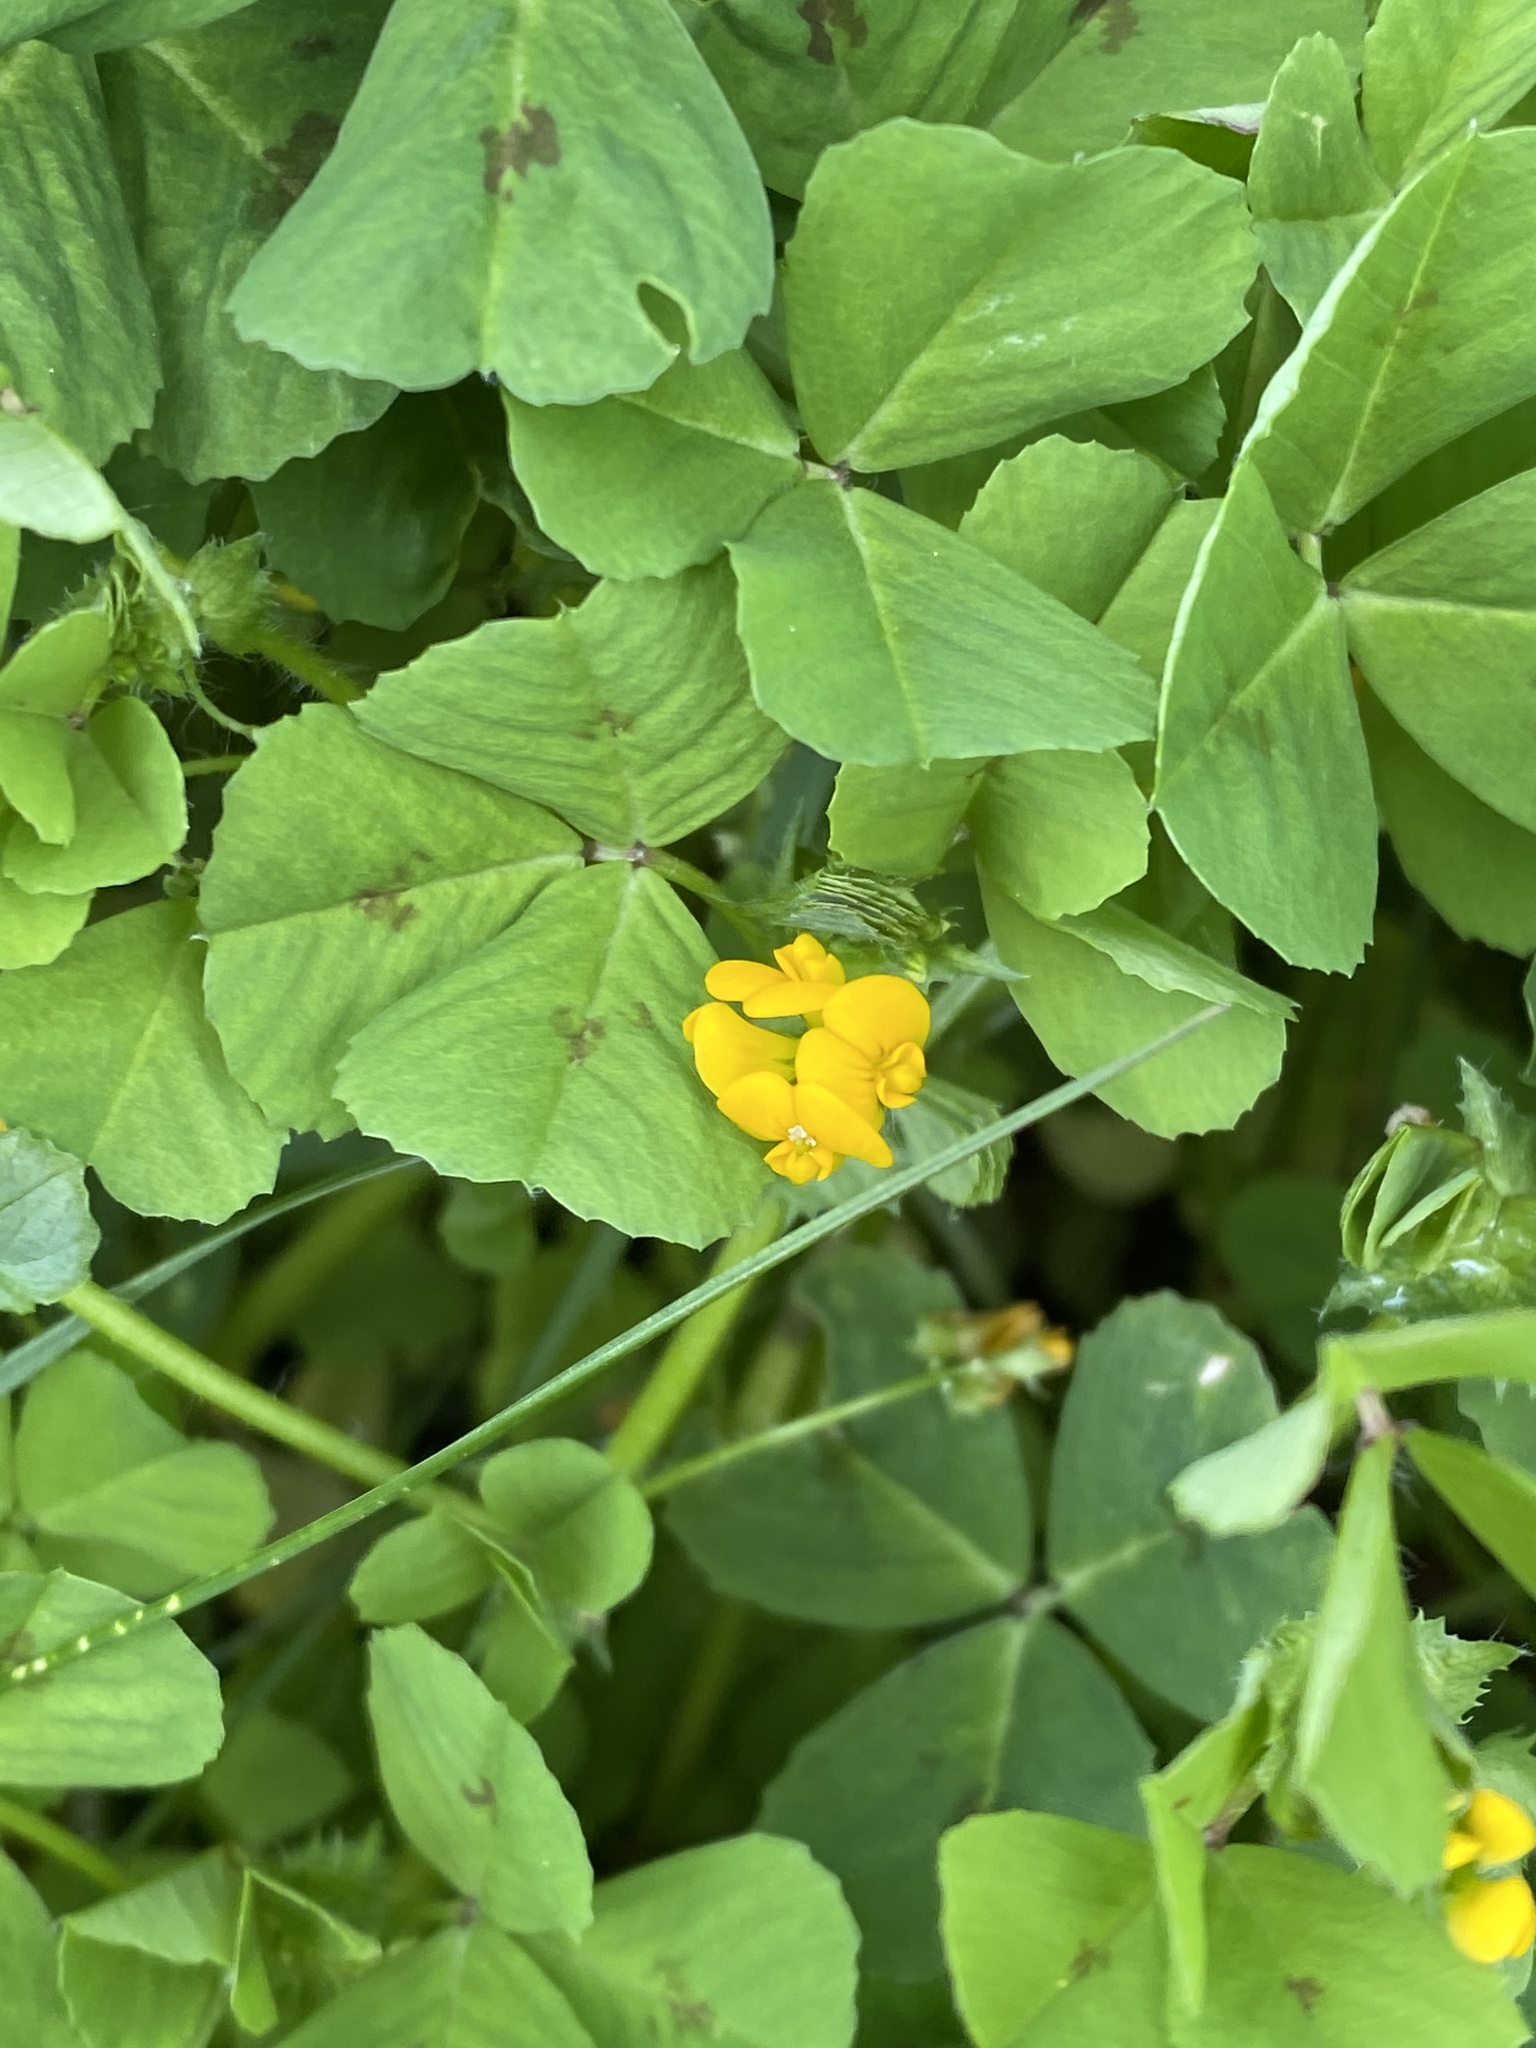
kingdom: Plantae
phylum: Tracheophyta
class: Magnoliopsida
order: Fabales
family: Fabaceae
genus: Medicago
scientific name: Medicago arabica
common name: Spotted medick
